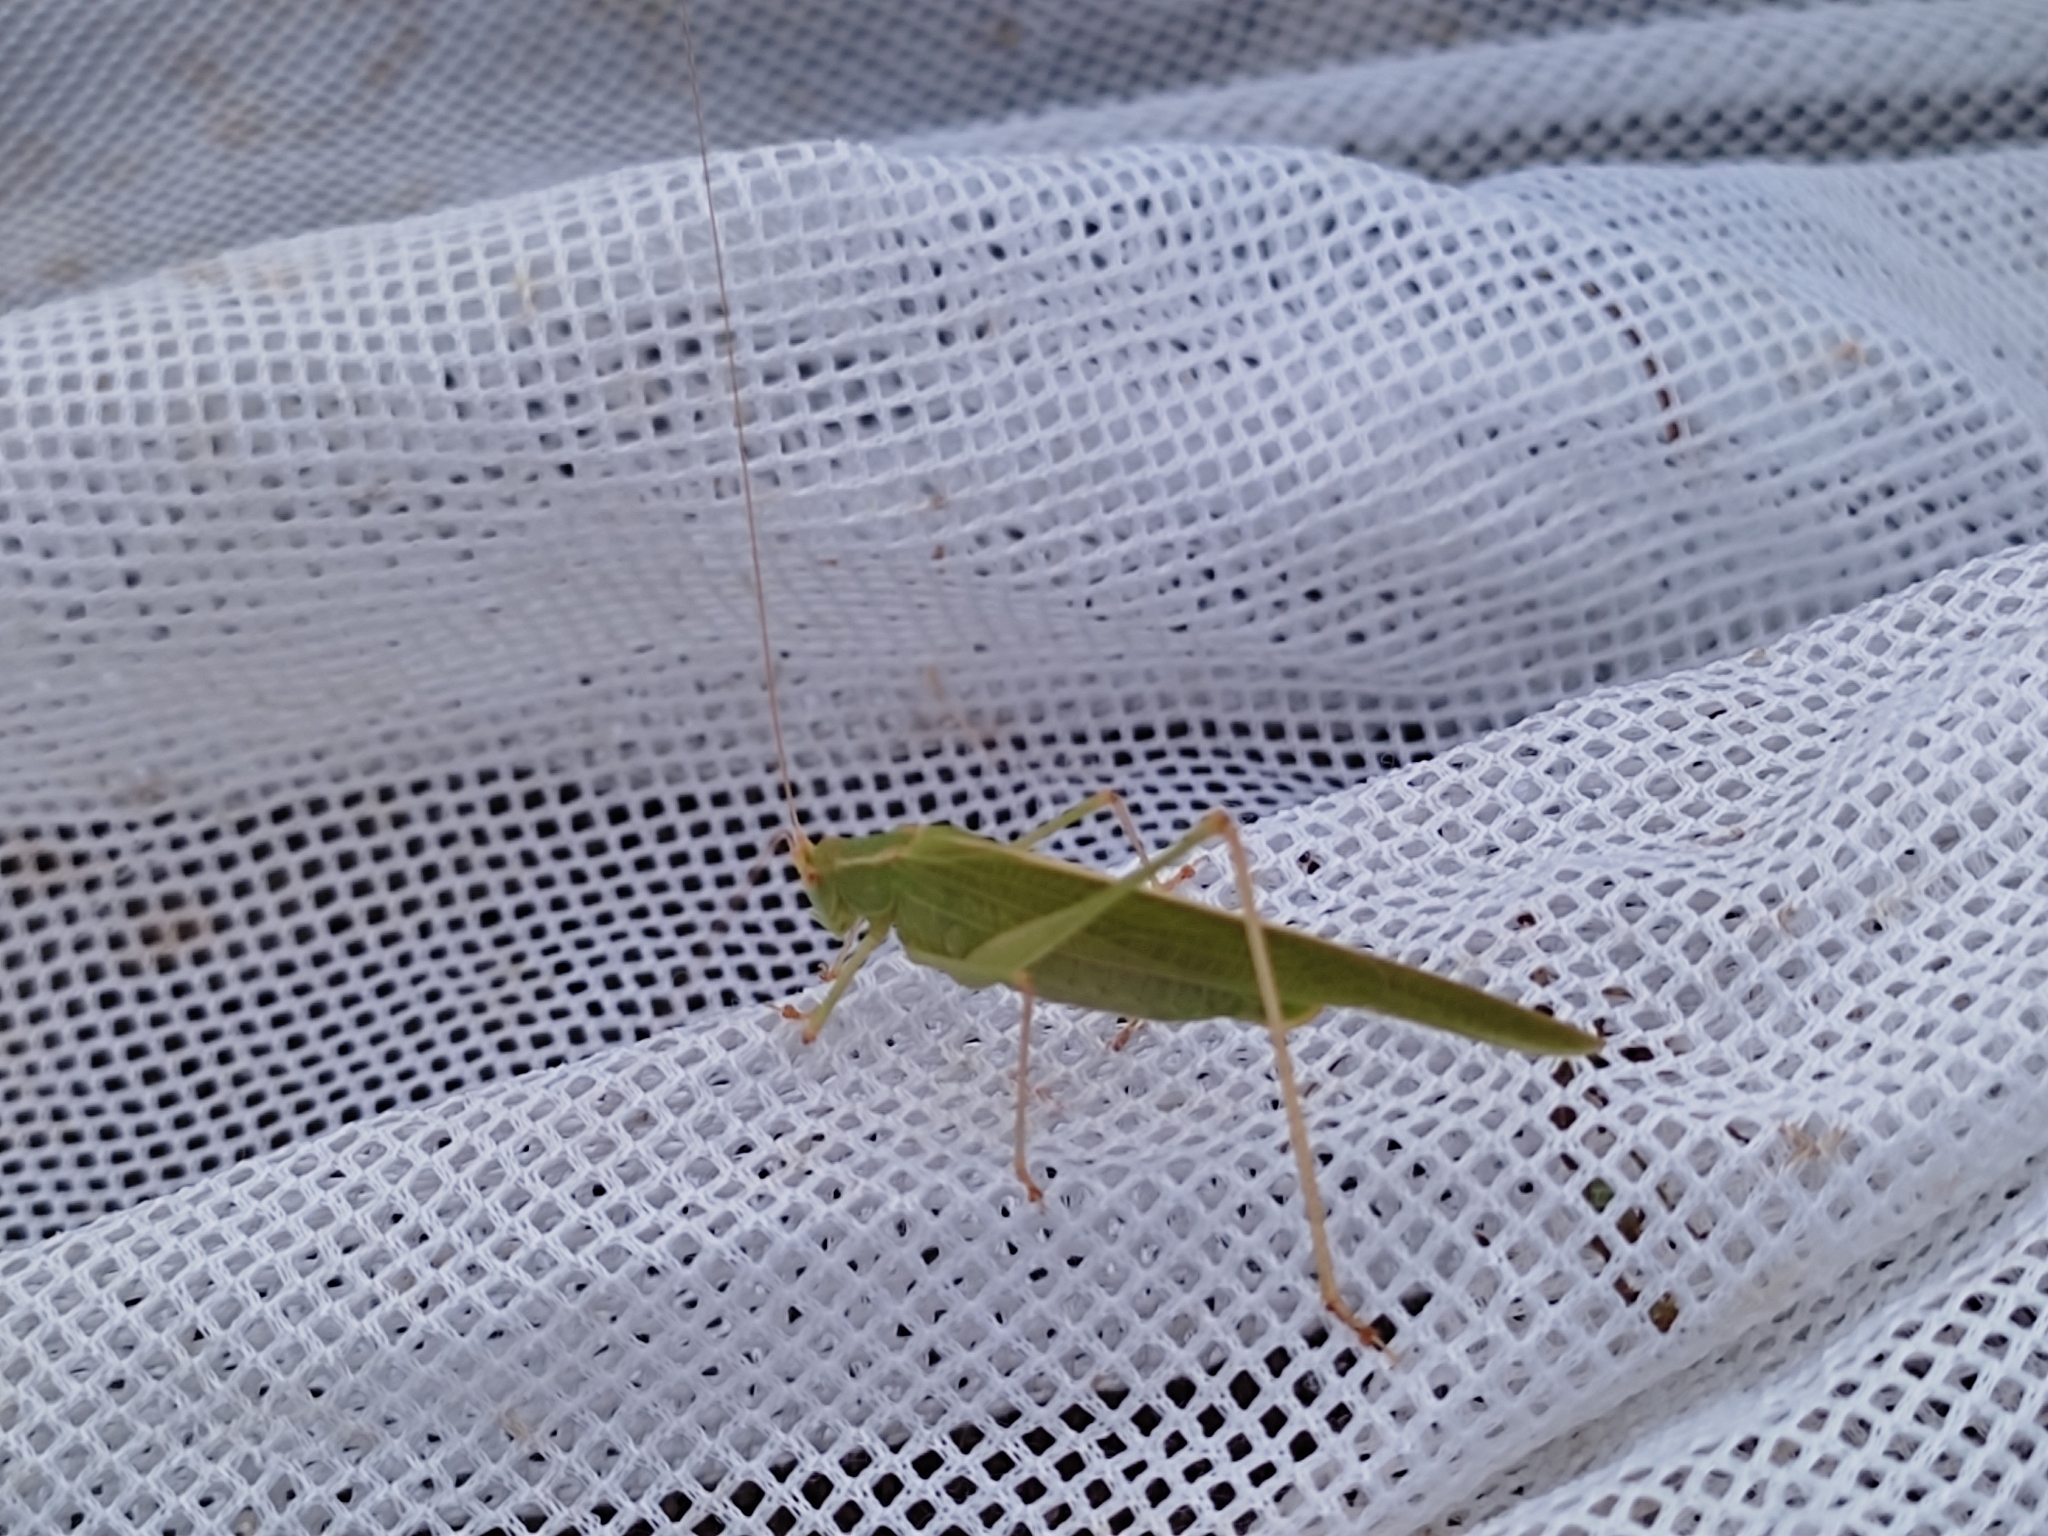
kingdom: Animalia
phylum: Arthropoda
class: Insecta
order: Orthoptera
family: Tettigoniidae
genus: Phaneroptera
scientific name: Phaneroptera falcata
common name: Sickle-bearing bush-cricket
